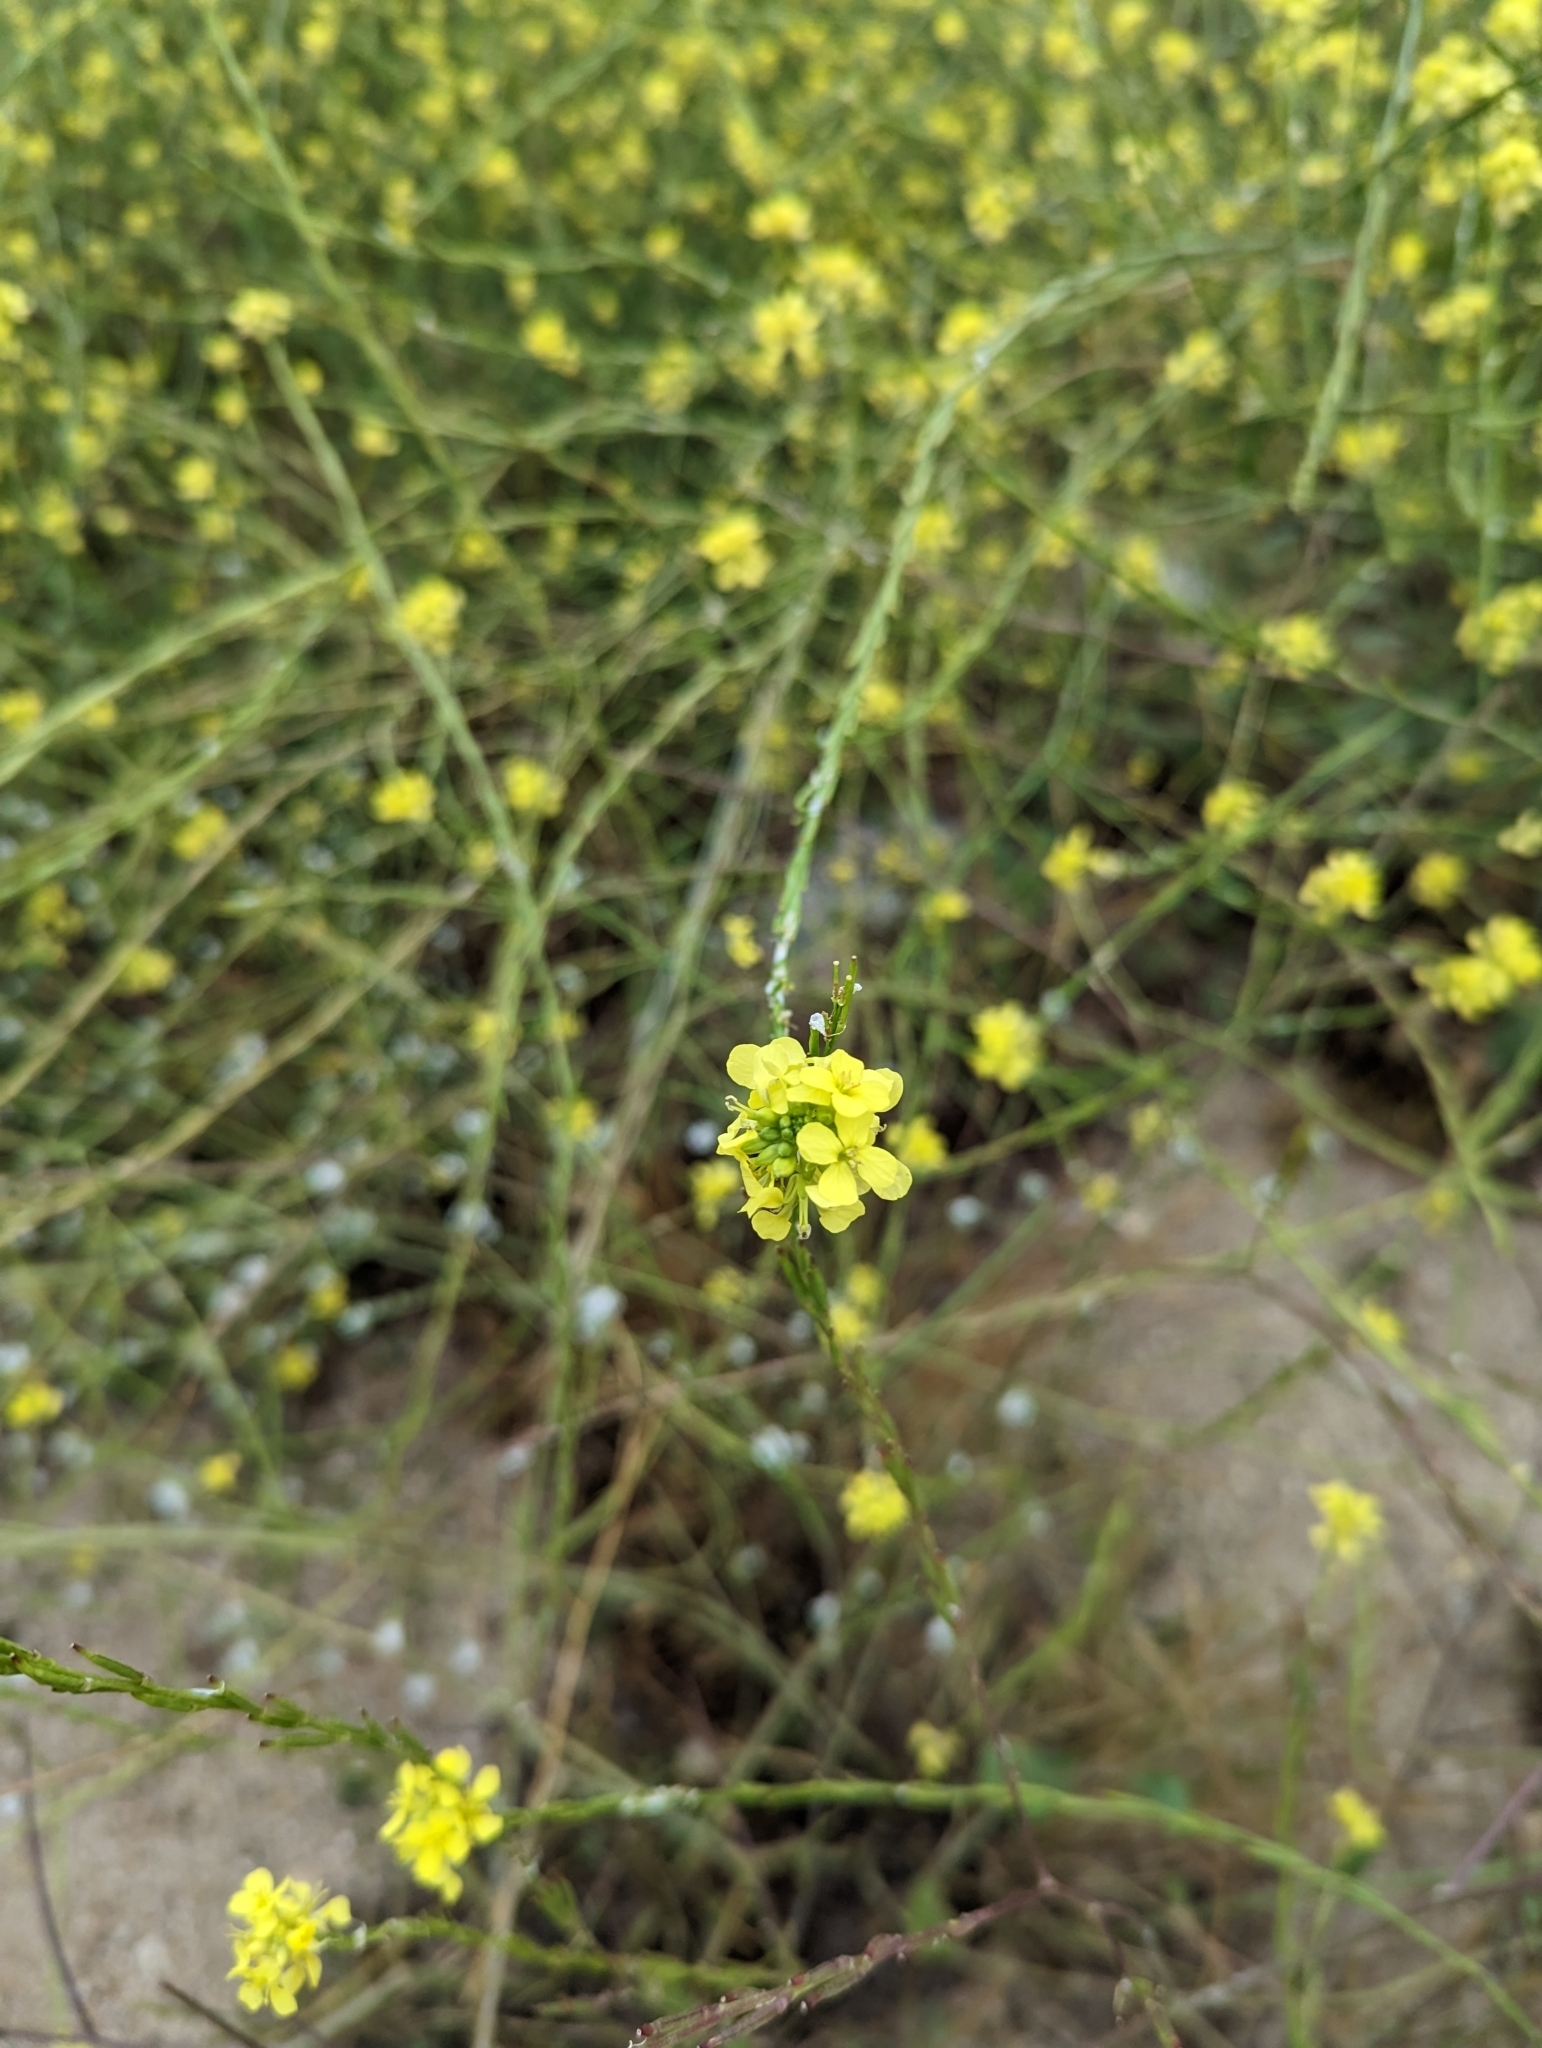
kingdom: Plantae
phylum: Tracheophyta
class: Magnoliopsida
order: Brassicales
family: Brassicaceae
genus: Hirschfeldia
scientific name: Hirschfeldia incana
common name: Hoary mustard
